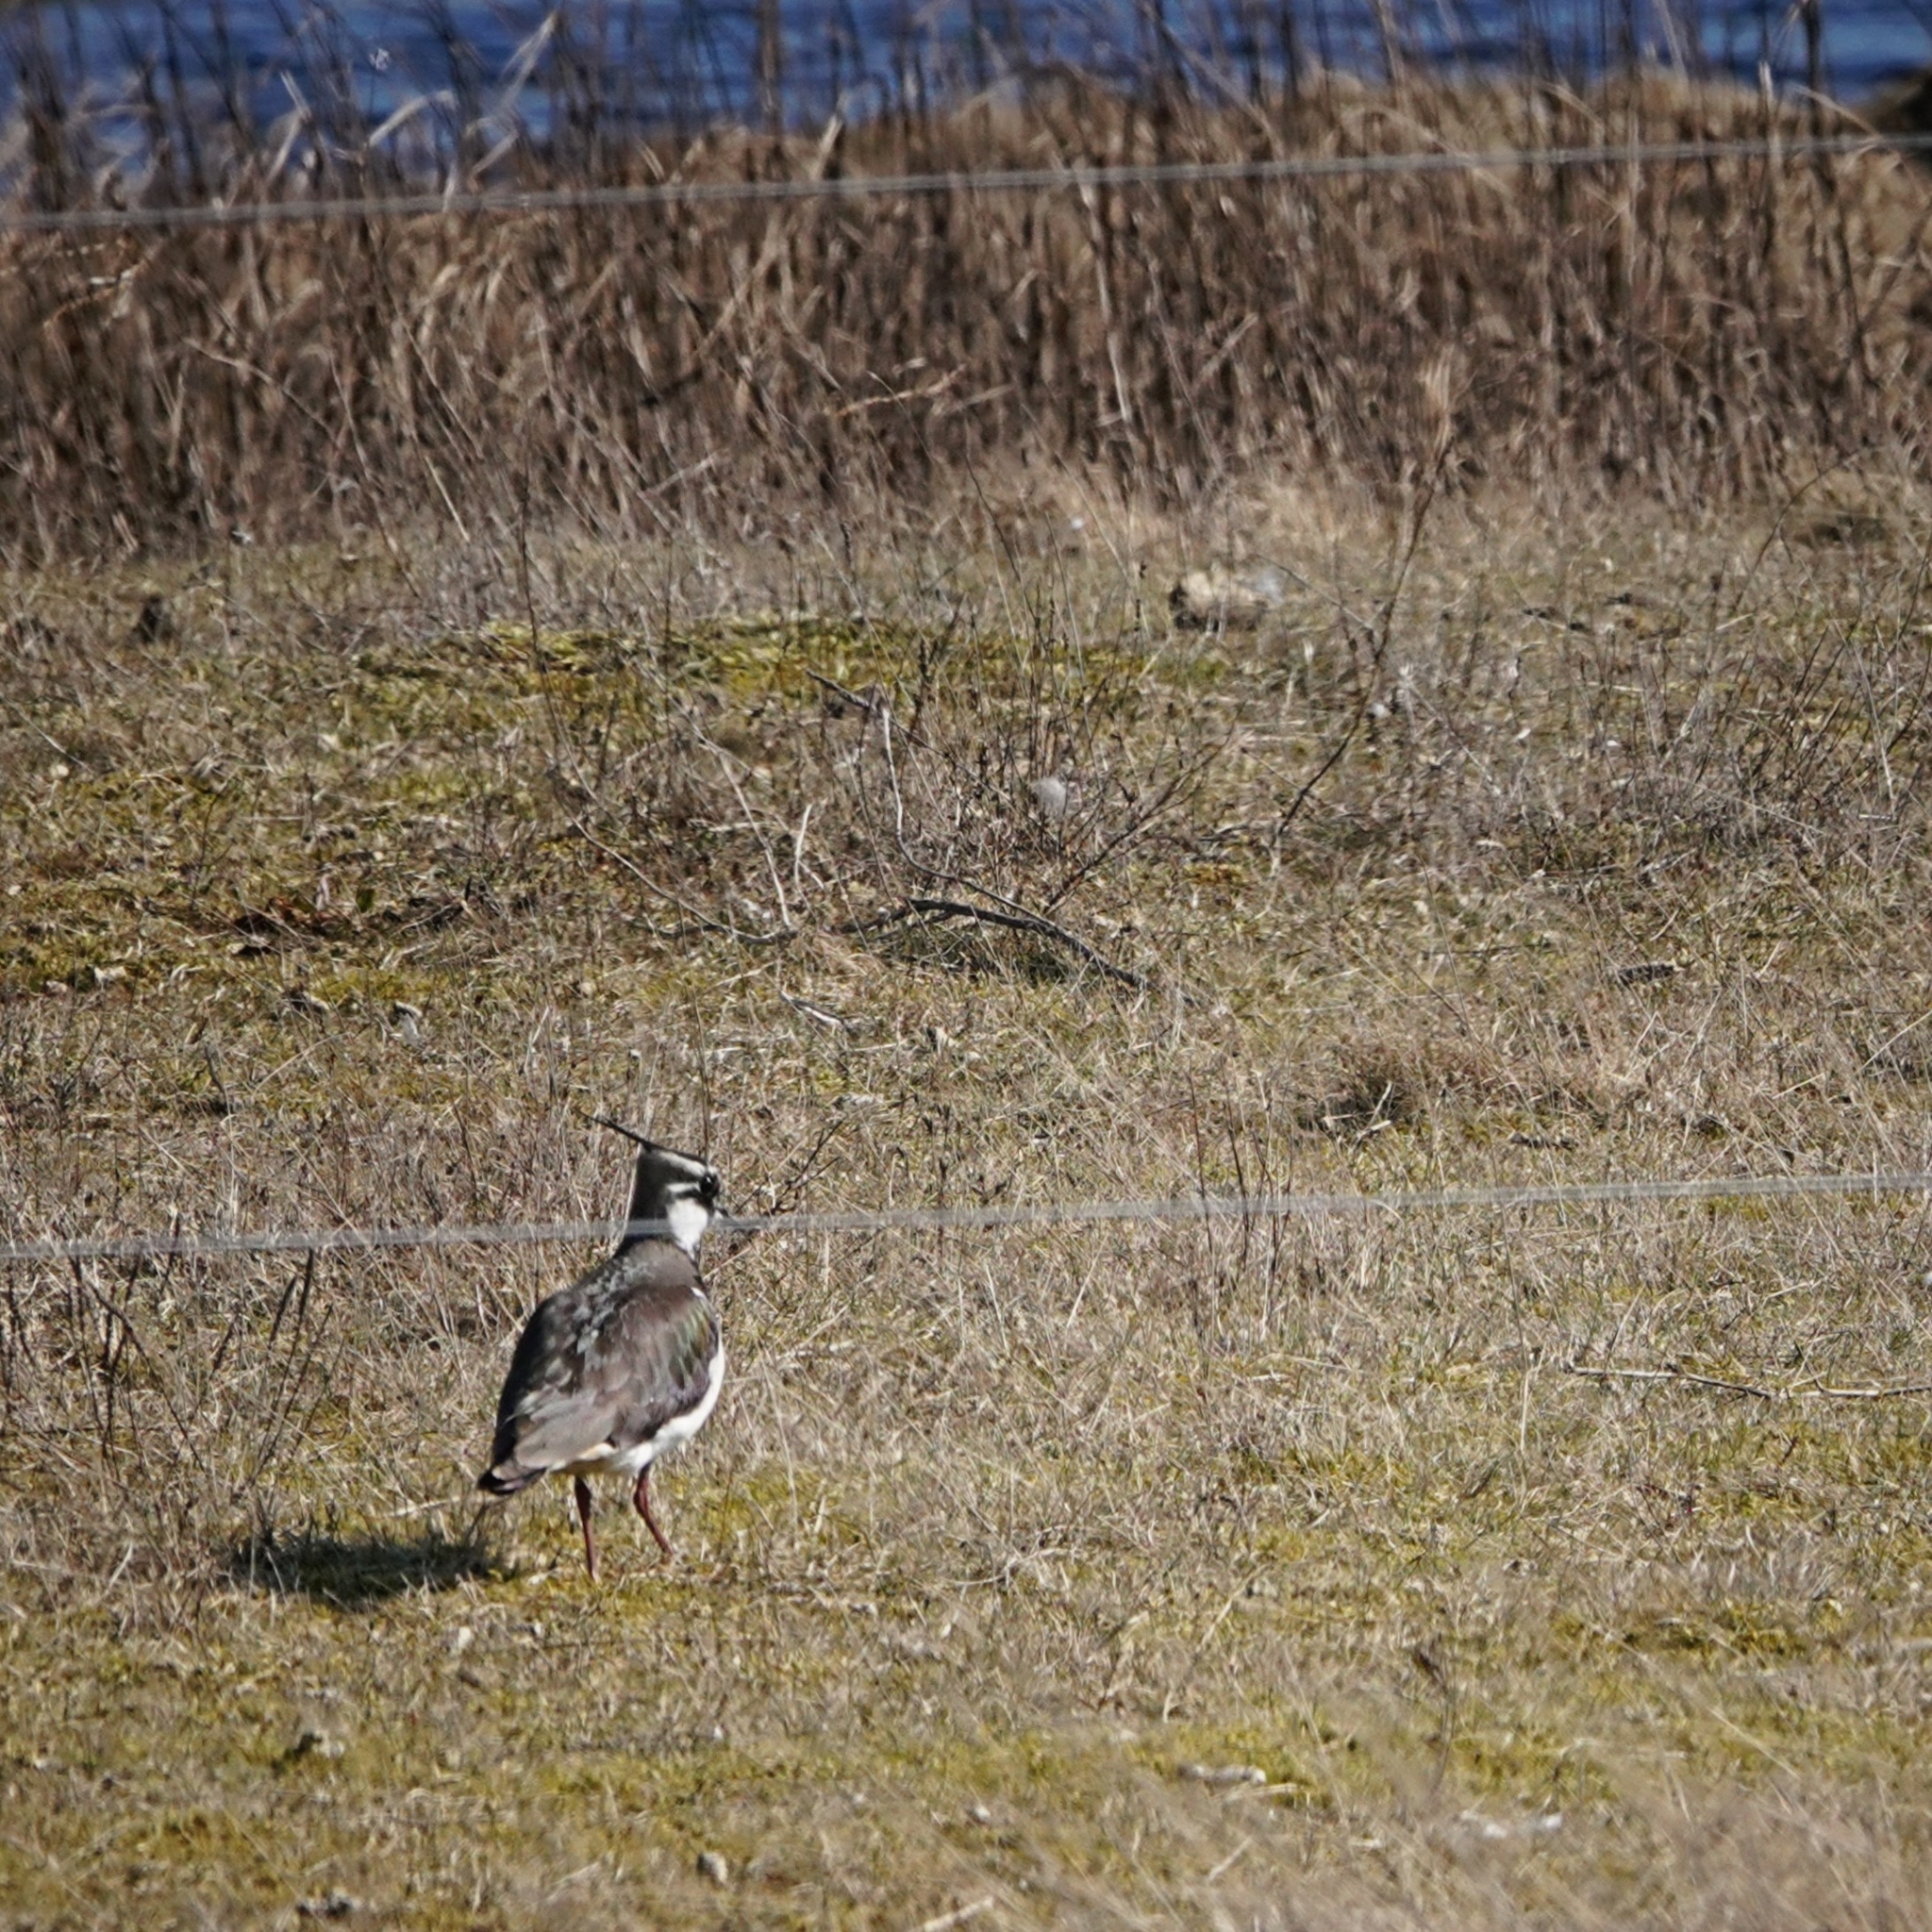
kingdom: Animalia
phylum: Chordata
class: Aves
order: Charadriiformes
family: Charadriidae
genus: Vanellus
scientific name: Vanellus vanellus
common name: Northern lapwing
